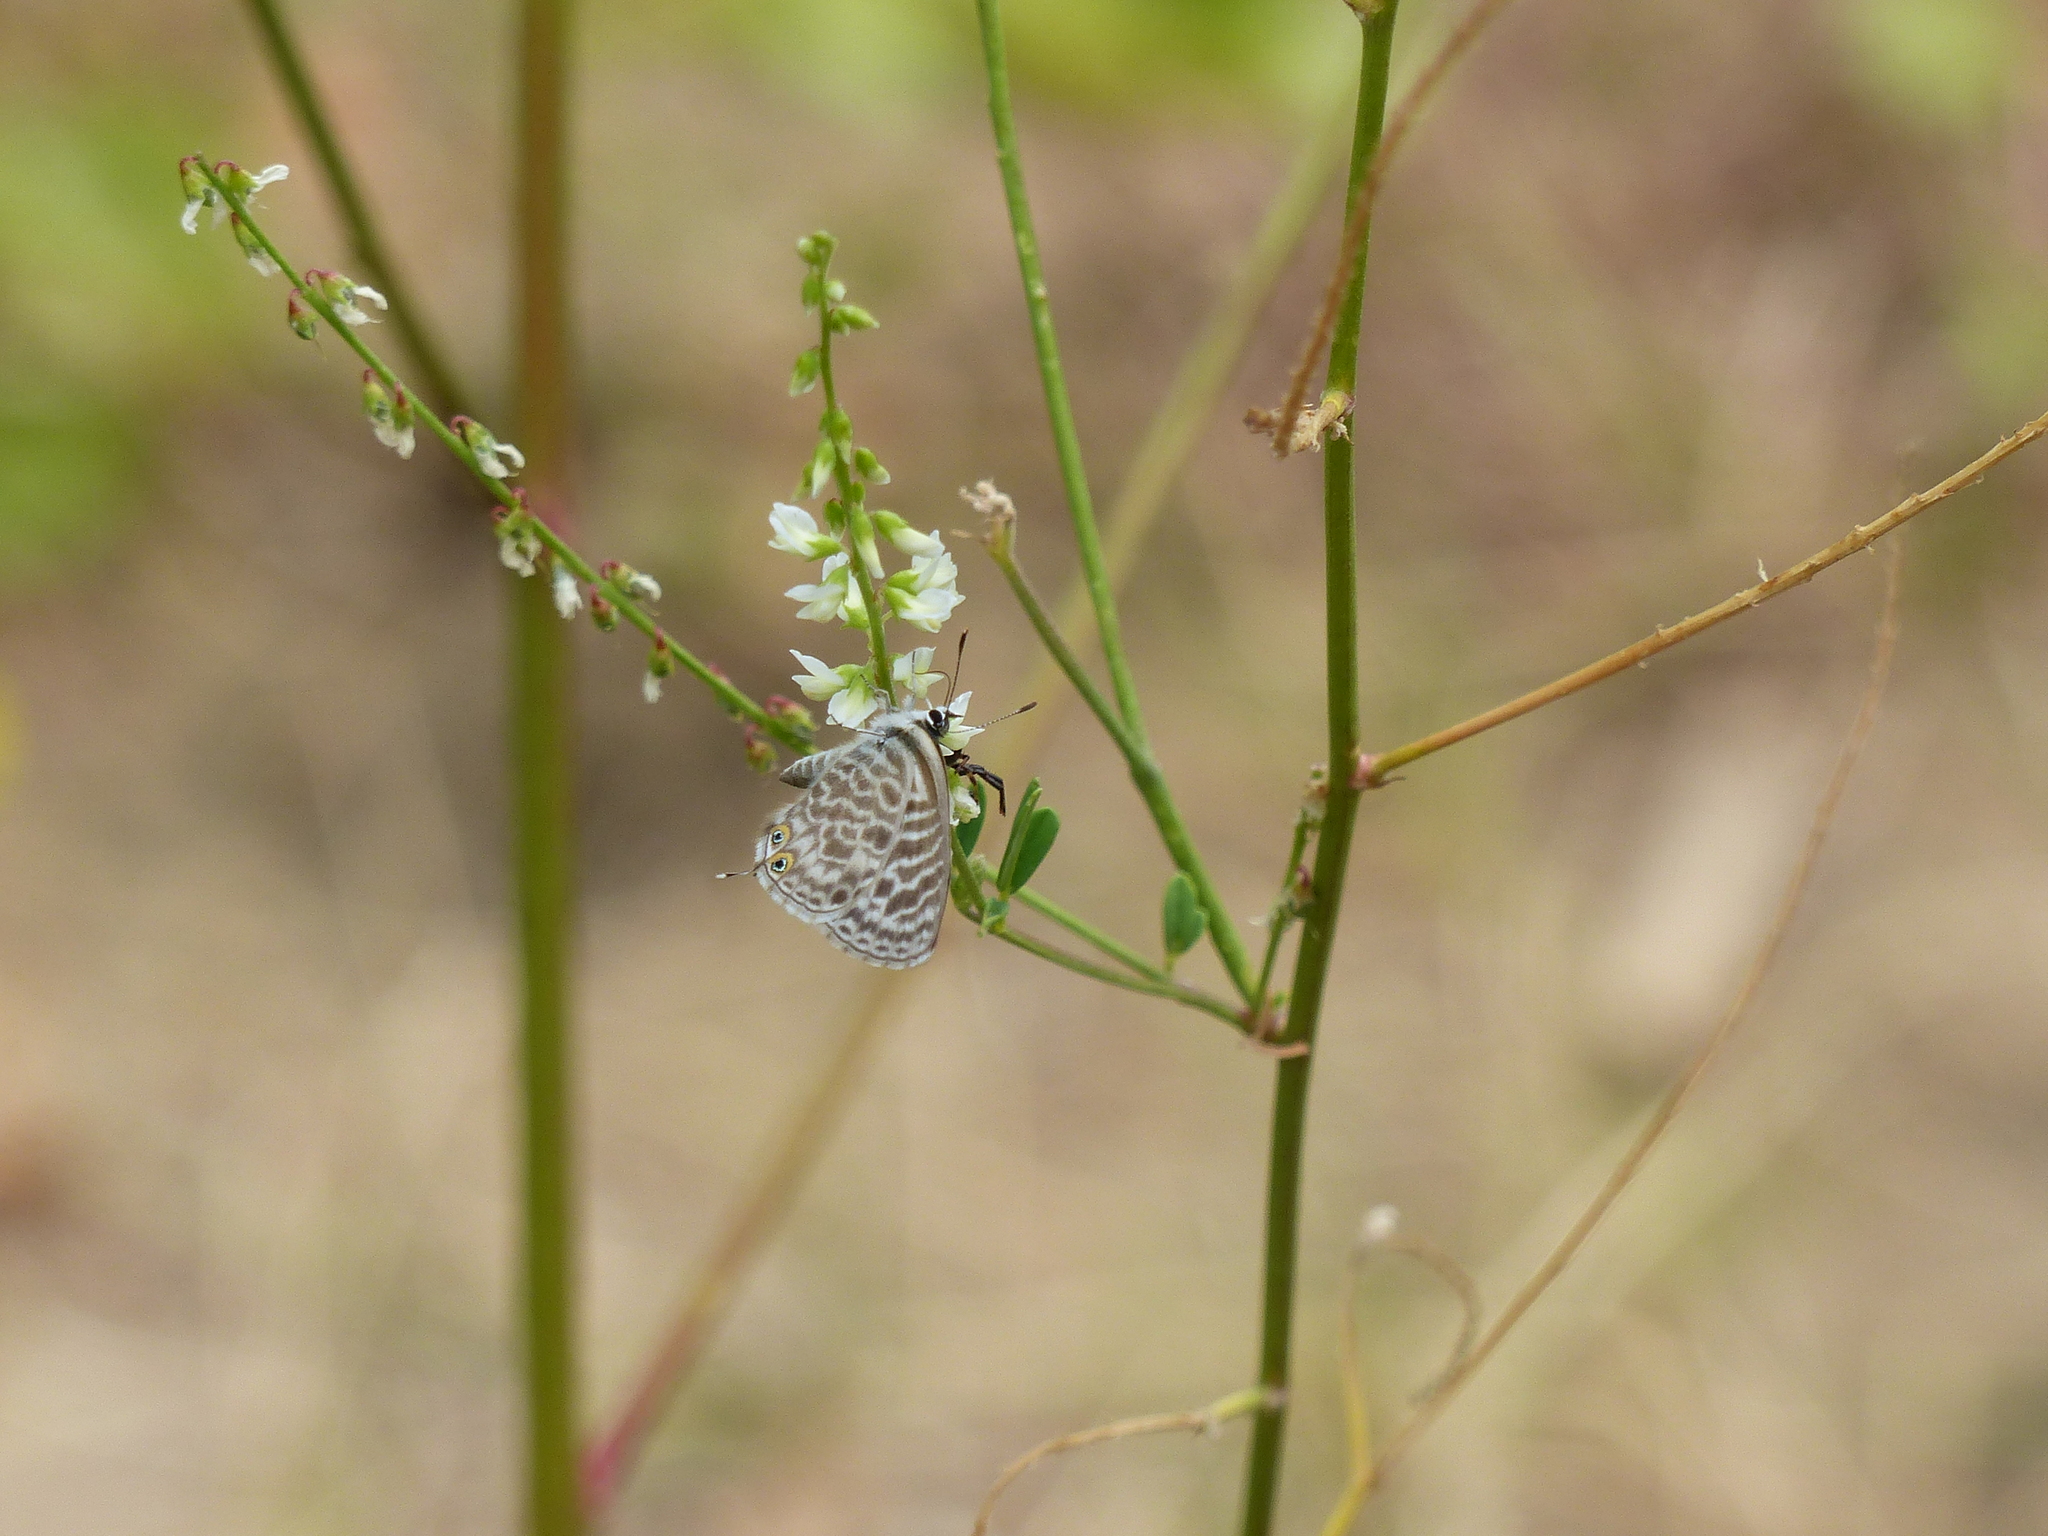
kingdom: Animalia
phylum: Arthropoda
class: Insecta
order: Lepidoptera
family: Lycaenidae
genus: Leptotes
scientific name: Leptotes pirithous
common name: Lang's short-tailed blue
